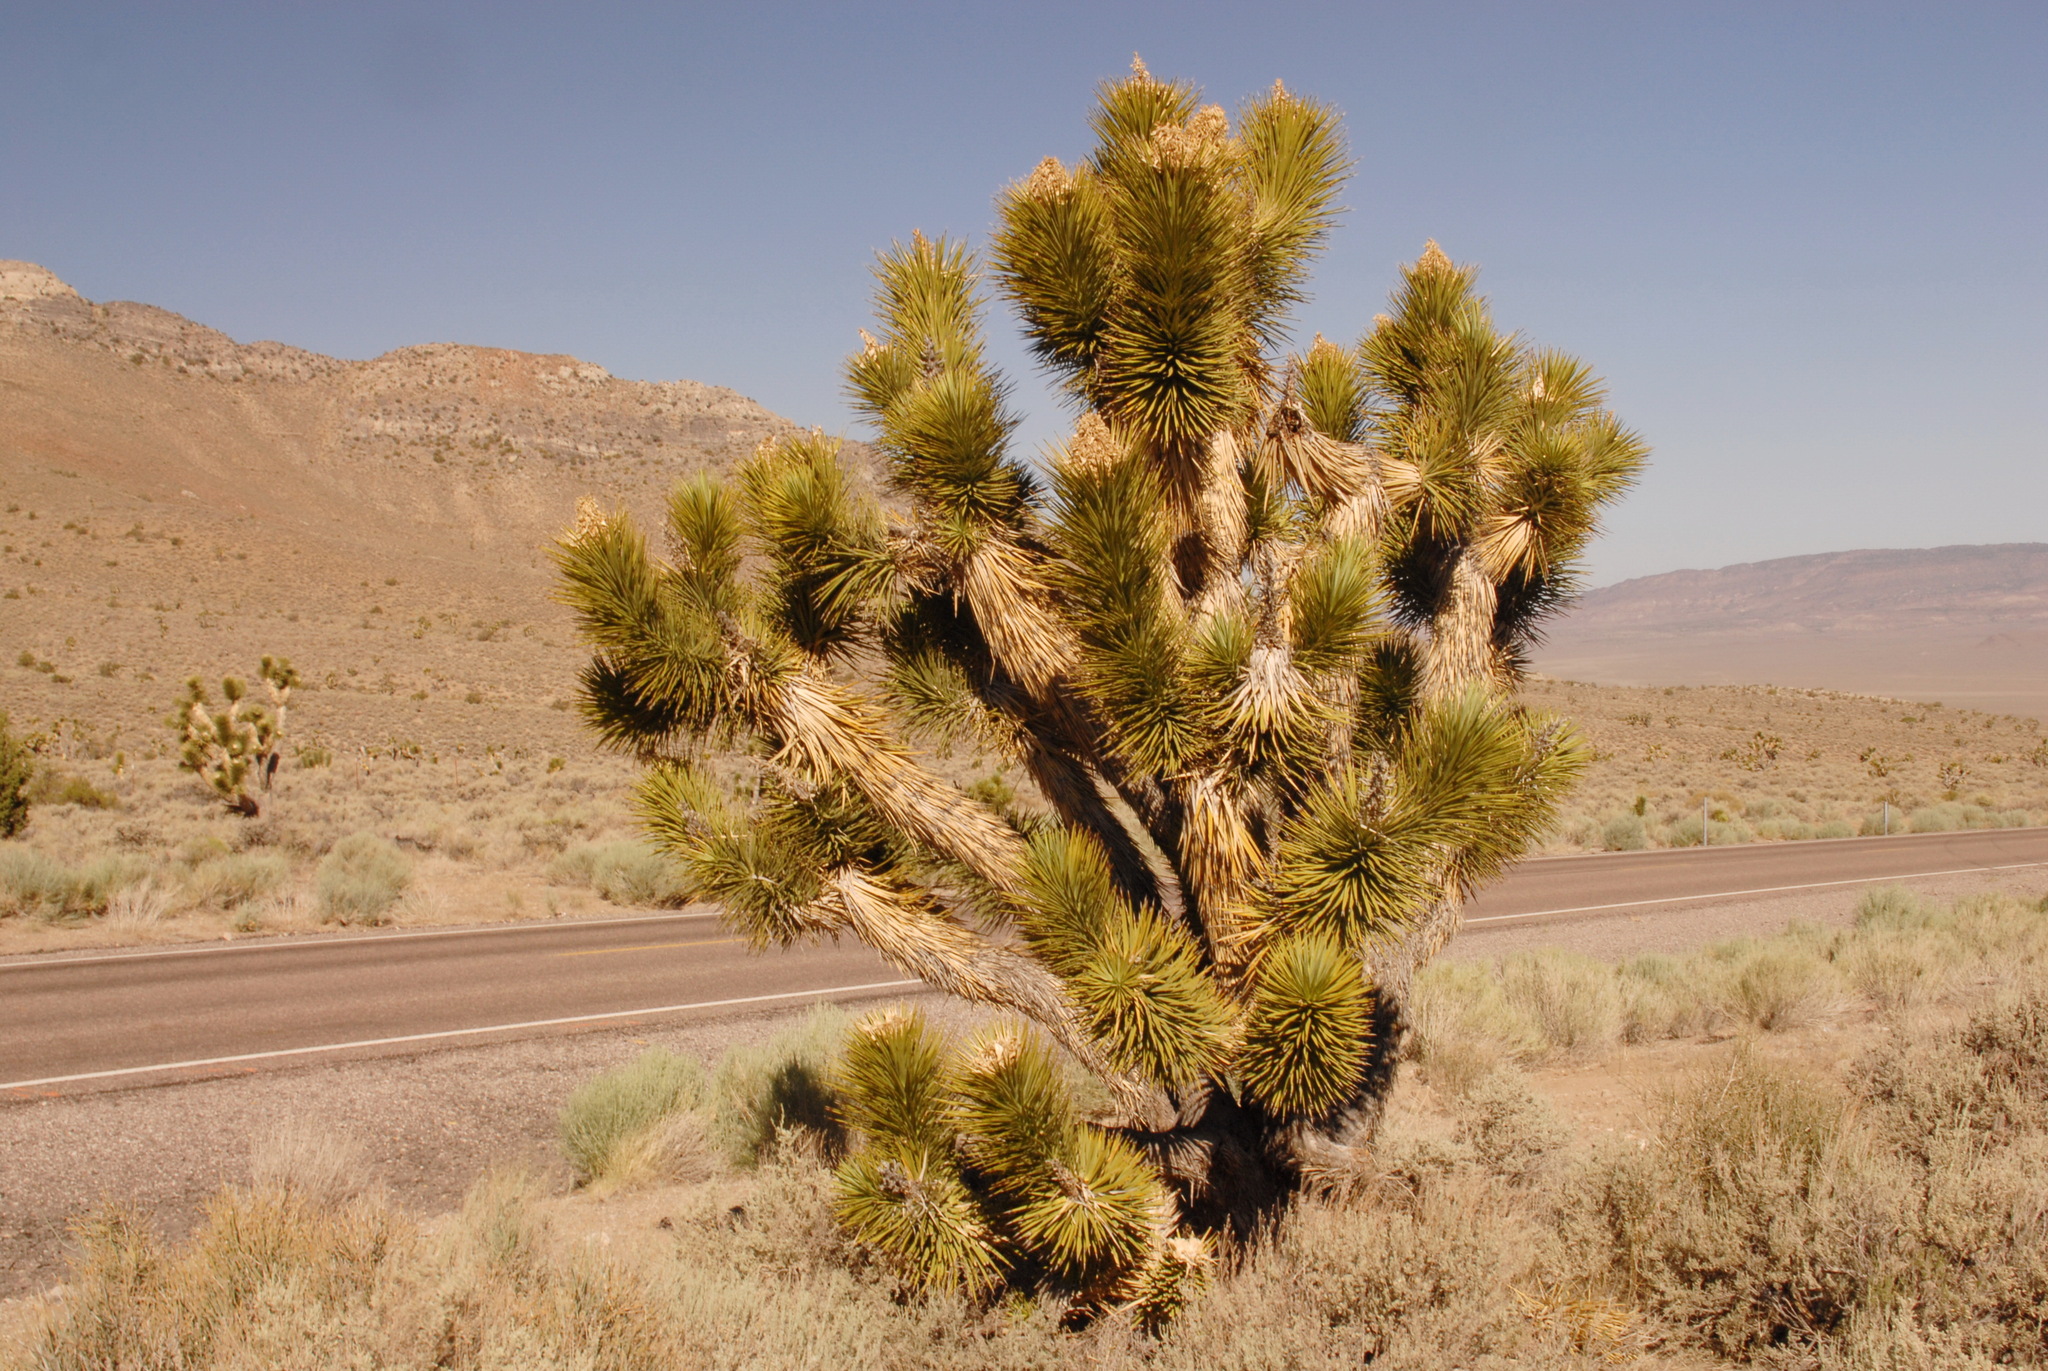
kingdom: Plantae
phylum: Tracheophyta
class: Liliopsida
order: Asparagales
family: Asparagaceae
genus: Yucca
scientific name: Yucca brevifolia
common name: Joshua tree
